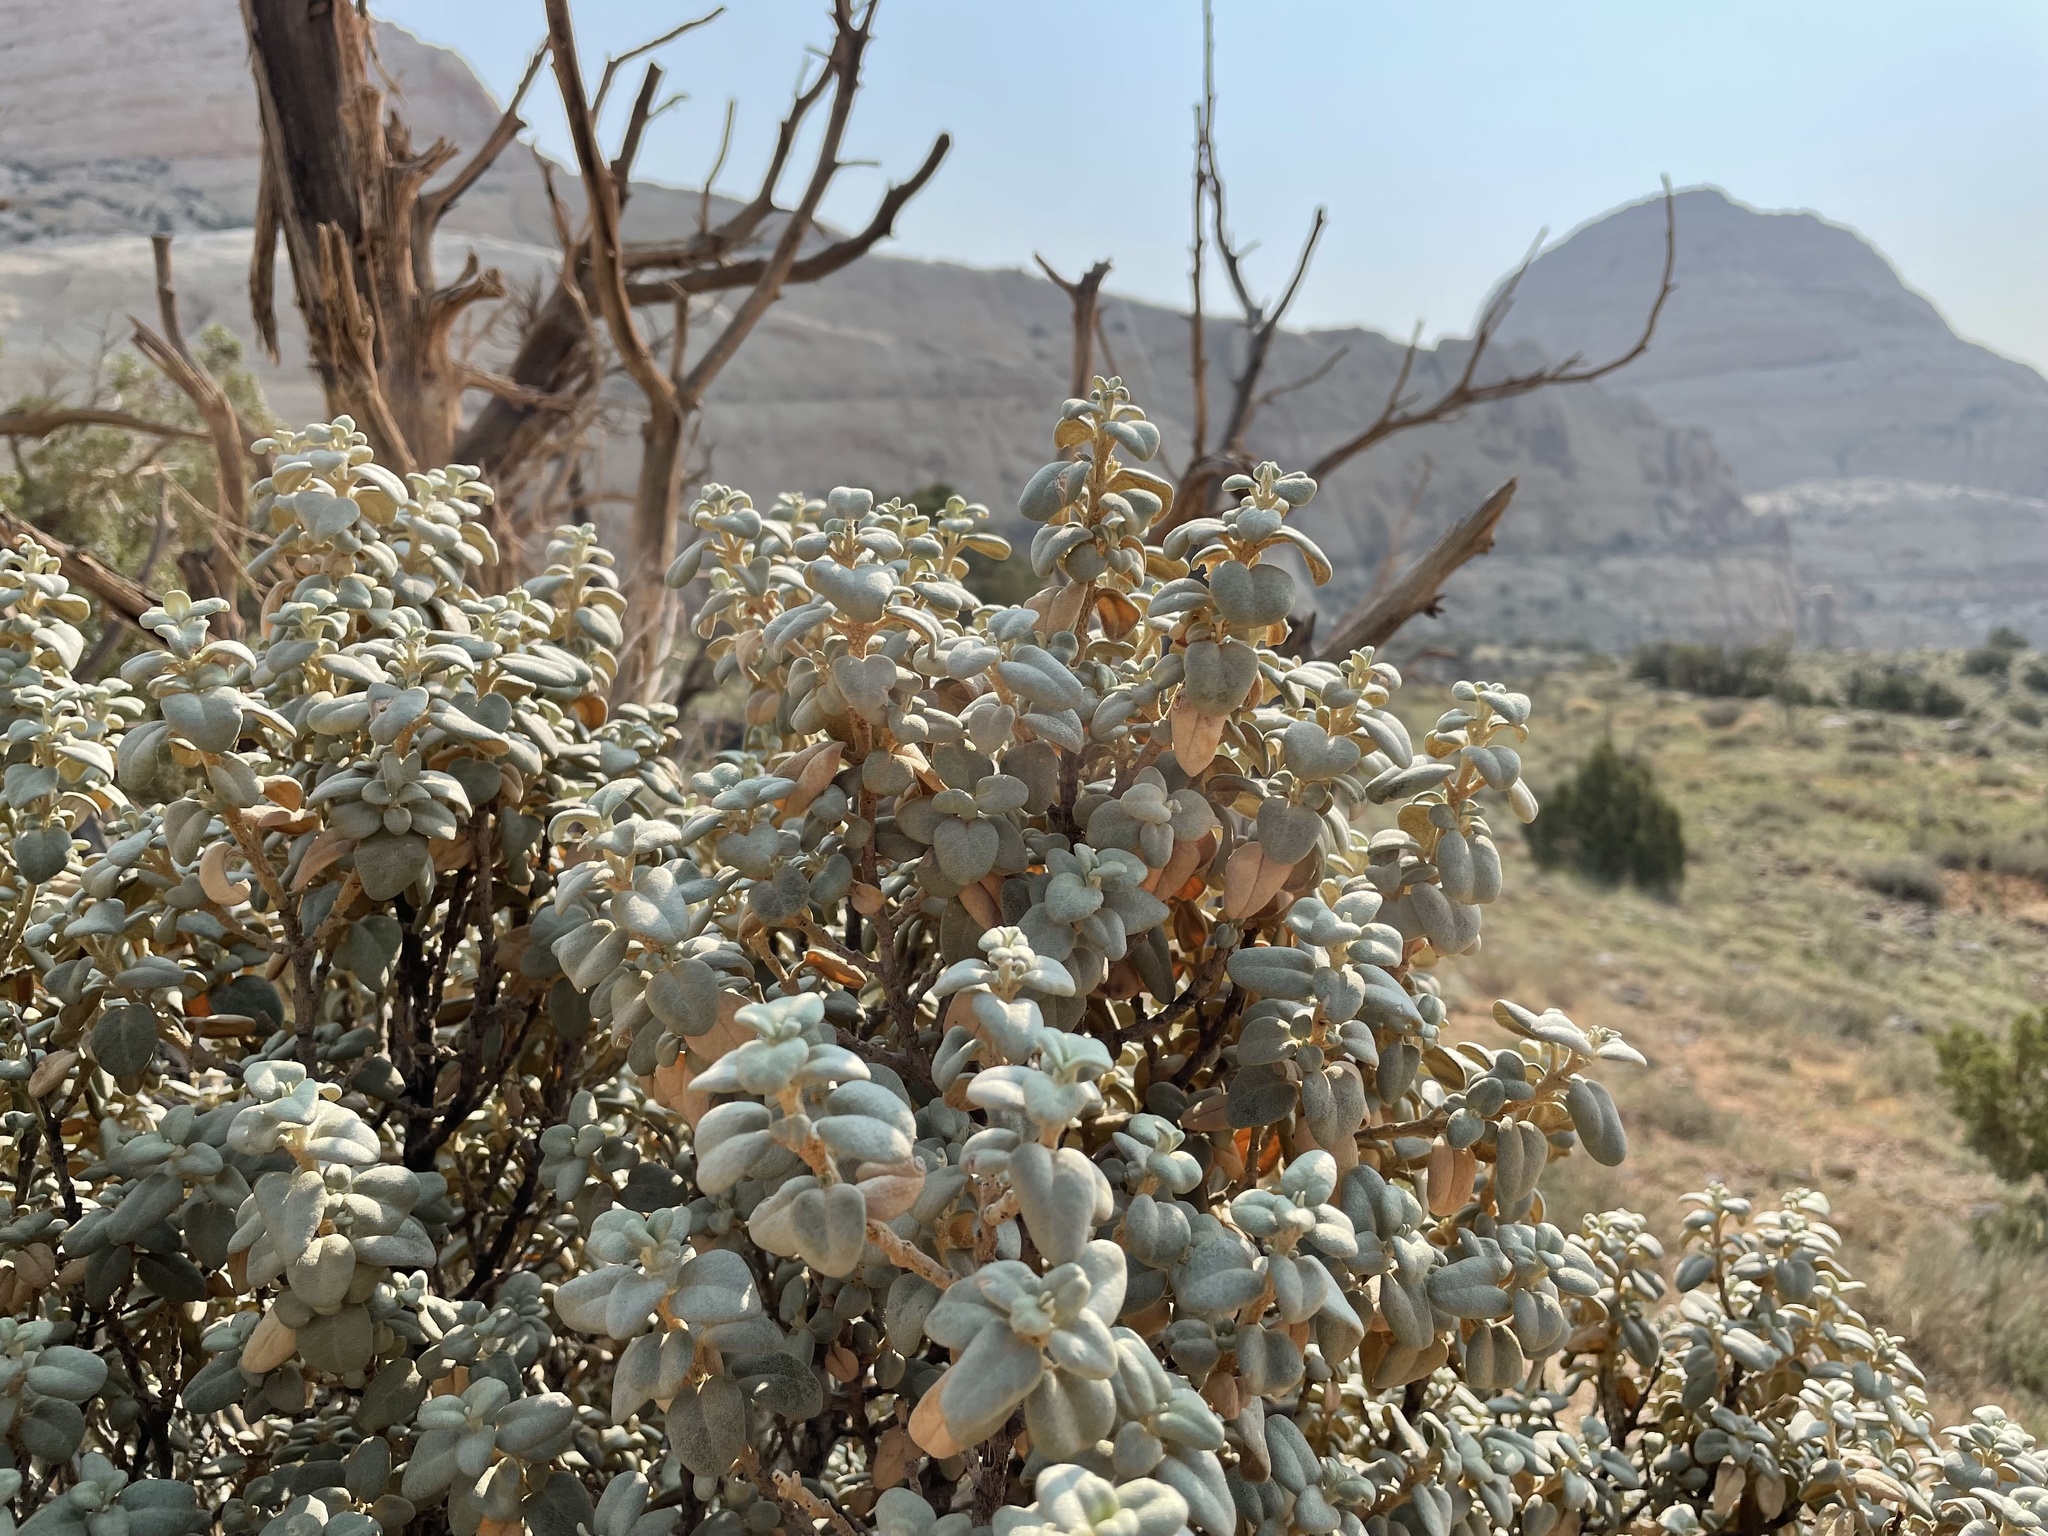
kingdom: Plantae
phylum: Tracheophyta
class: Magnoliopsida
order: Rosales
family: Elaeagnaceae
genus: Shepherdia
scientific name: Shepherdia rotundifolia
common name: Silverscale
